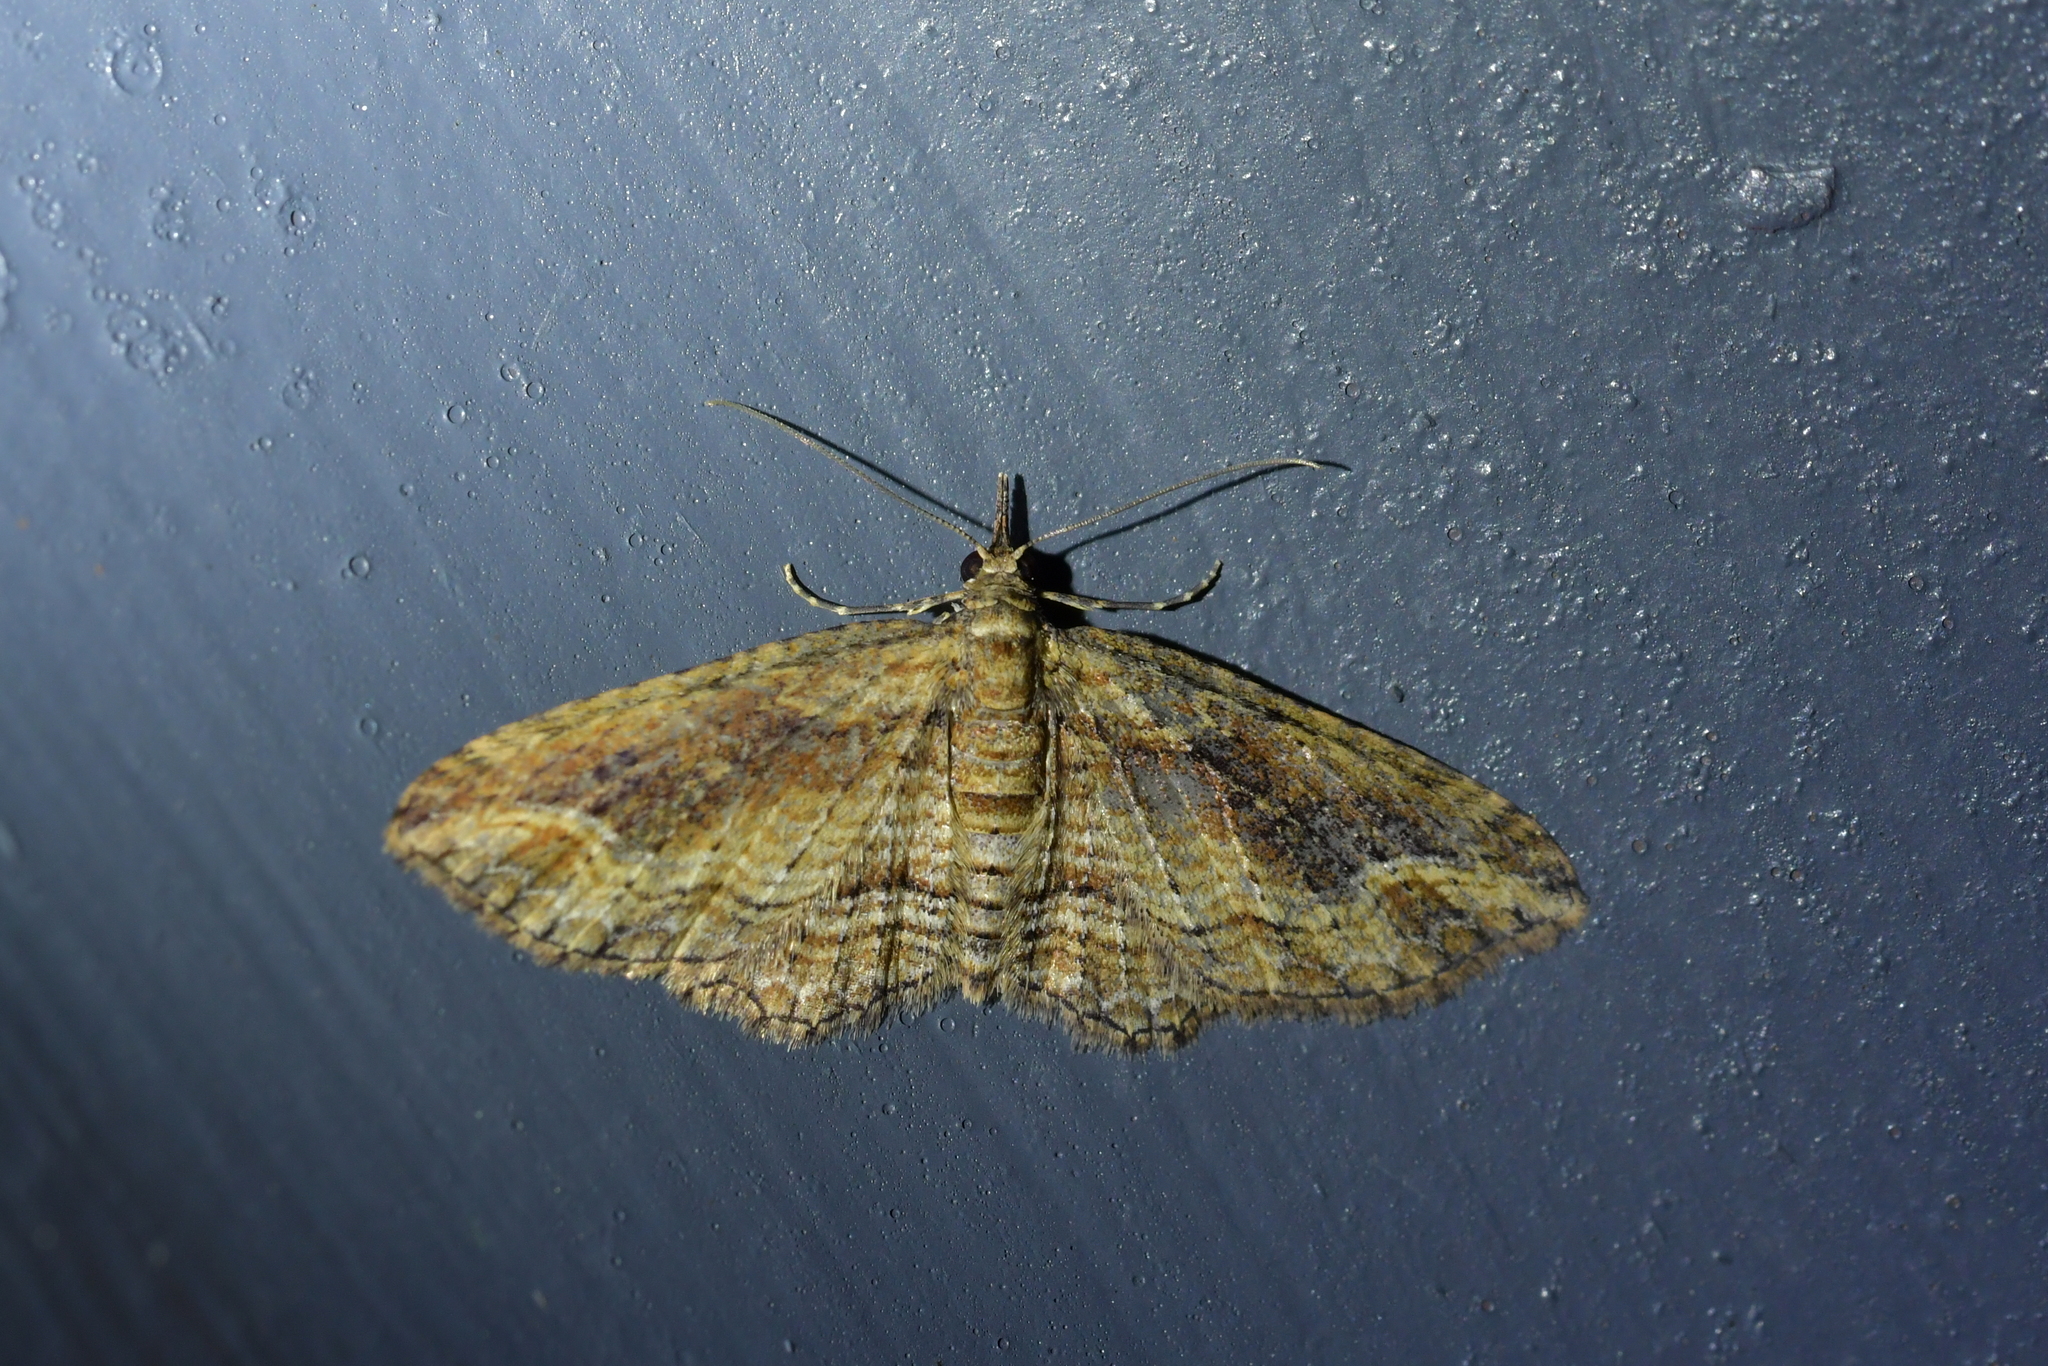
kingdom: Animalia
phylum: Arthropoda
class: Insecta
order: Lepidoptera
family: Geometridae
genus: Chloroclystis
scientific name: Chloroclystis filata
